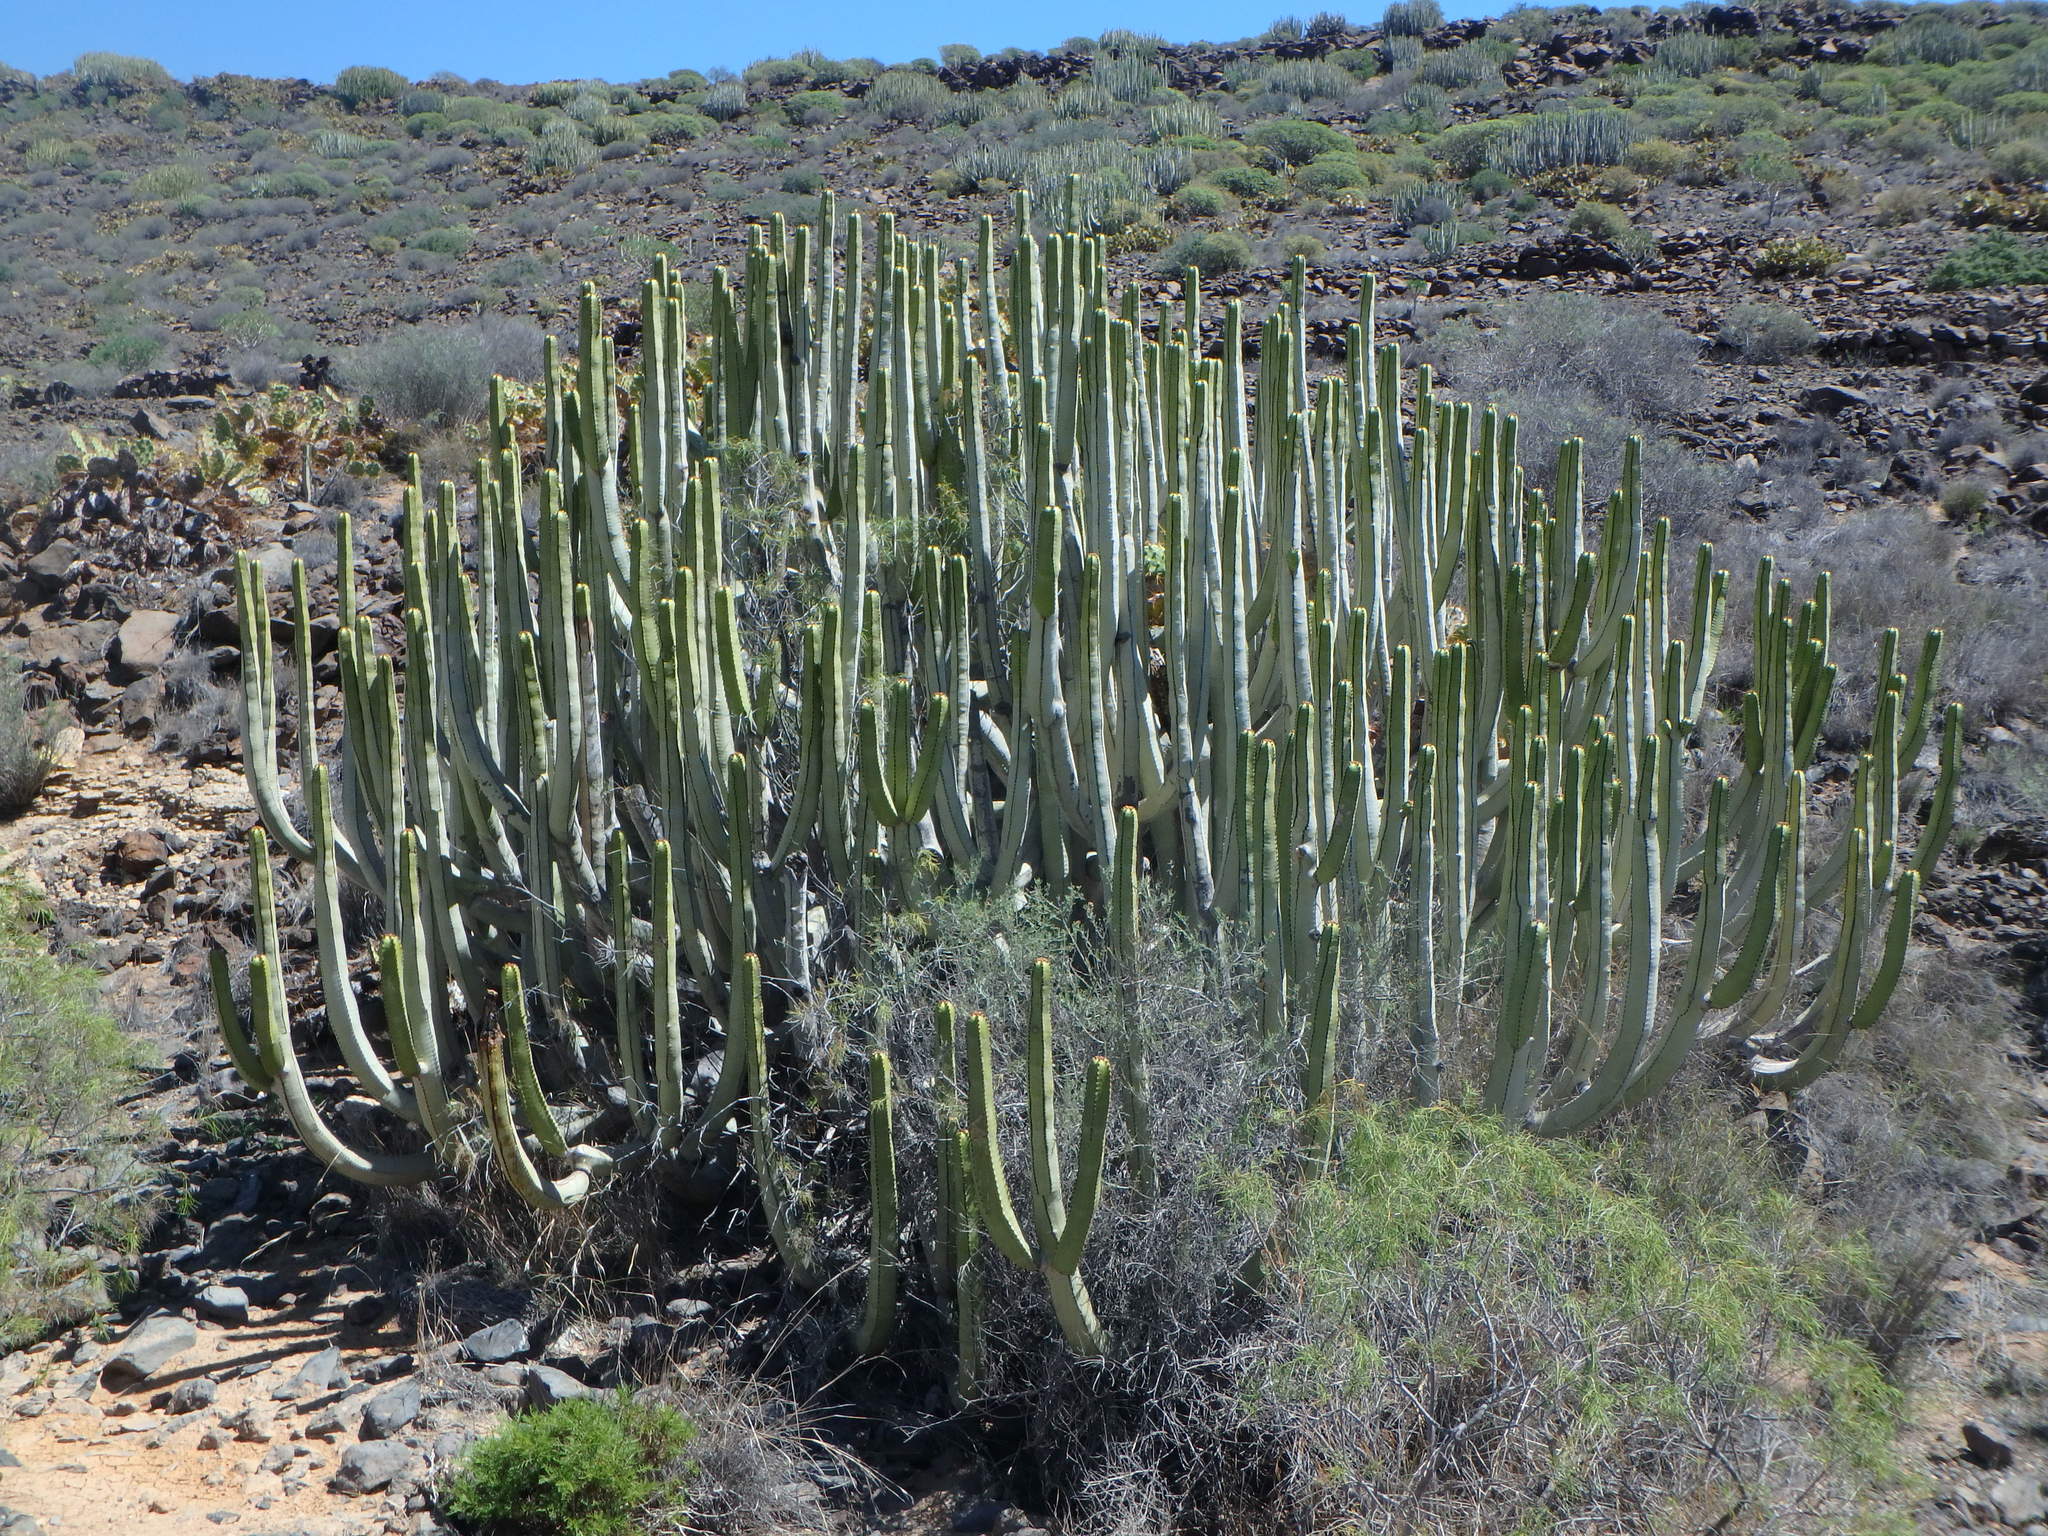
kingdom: Plantae
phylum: Tracheophyta
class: Magnoliopsida
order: Malpighiales
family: Euphorbiaceae
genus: Euphorbia
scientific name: Euphorbia canariensis
